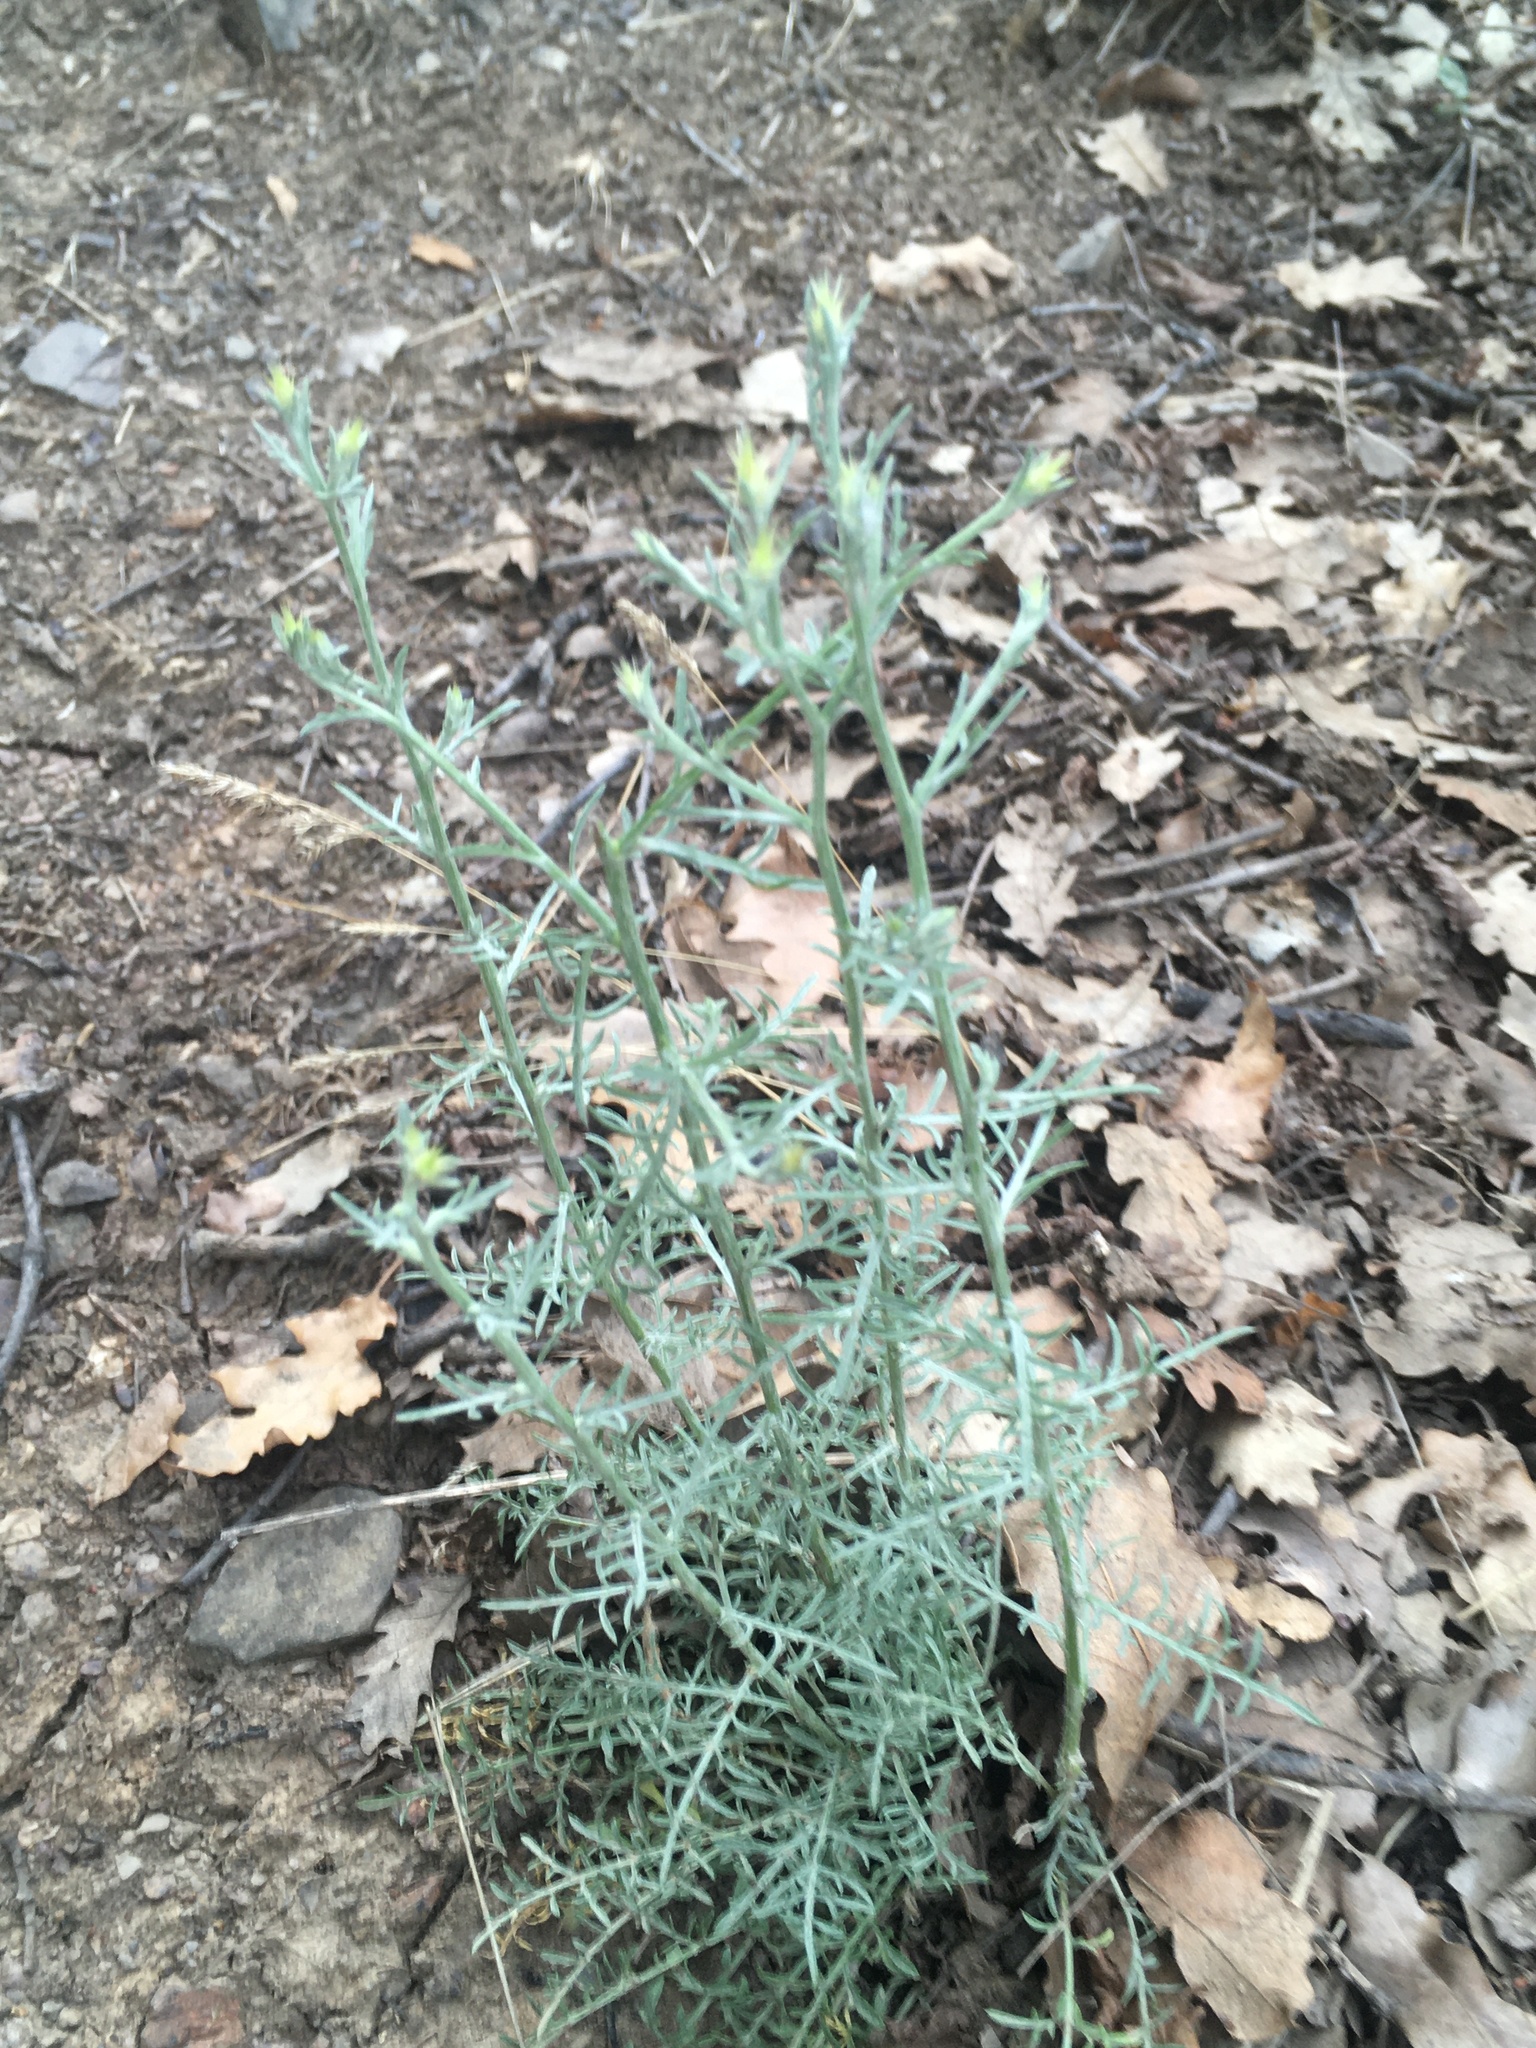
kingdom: Plantae
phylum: Tracheophyta
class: Magnoliopsida
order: Asterales
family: Asteraceae
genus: Centaurea
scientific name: Centaurea diffusa
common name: Diffuse knapweed
